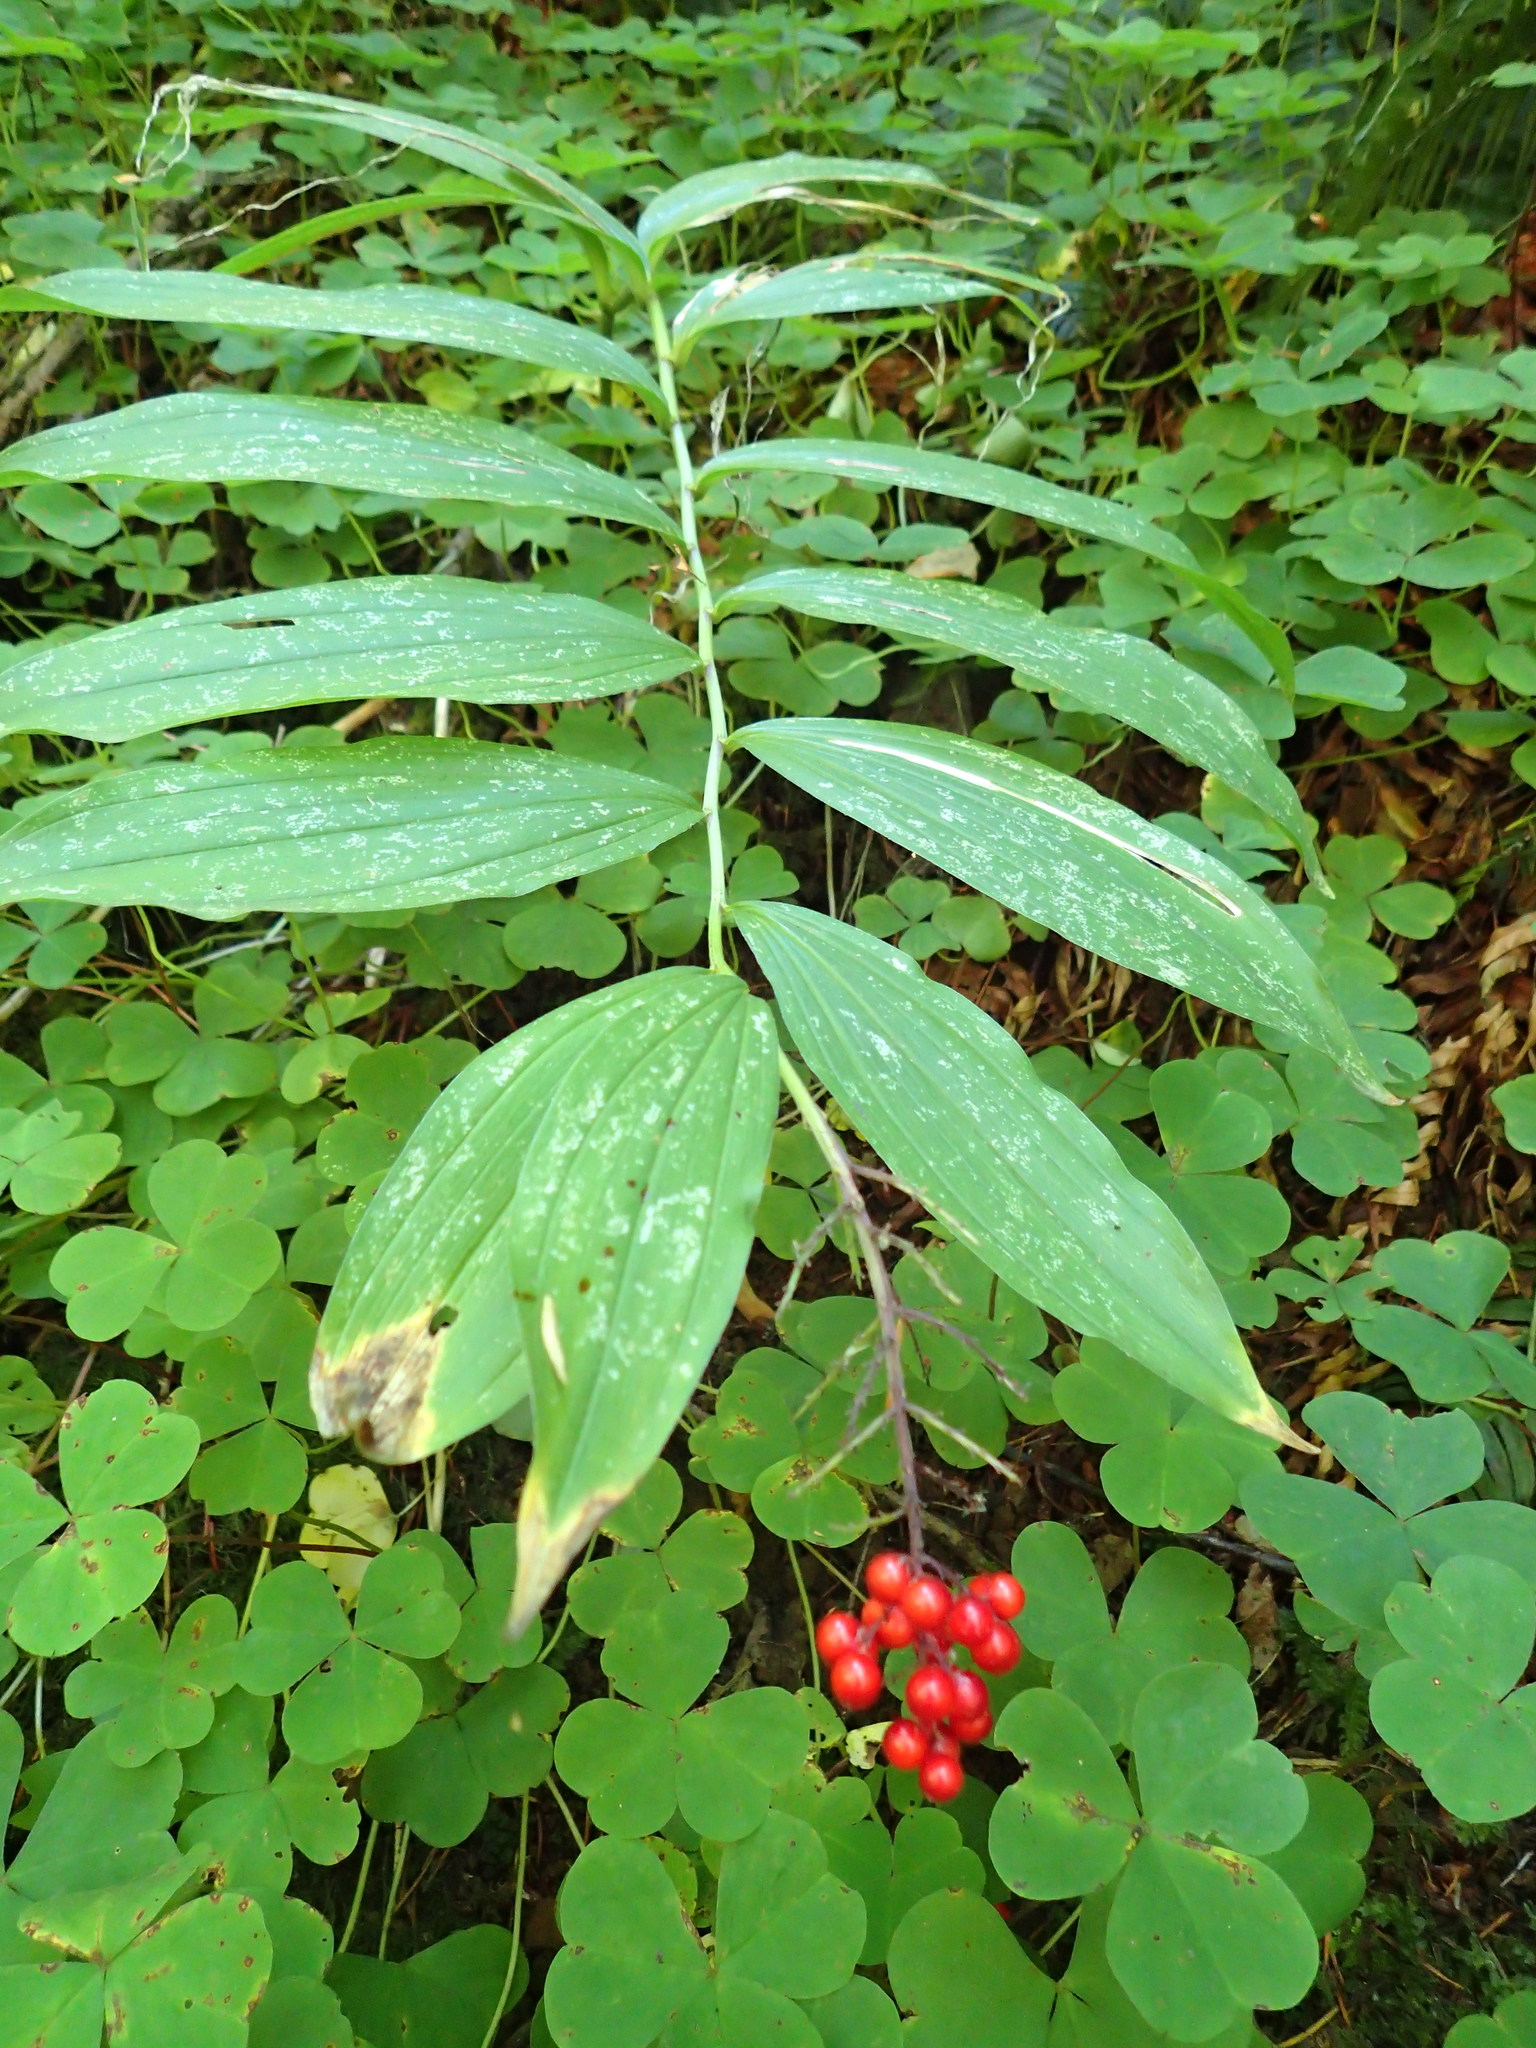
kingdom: Plantae
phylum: Tracheophyta
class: Liliopsida
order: Asparagales
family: Asparagaceae
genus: Maianthemum
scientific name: Maianthemum racemosum
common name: False spikenard
